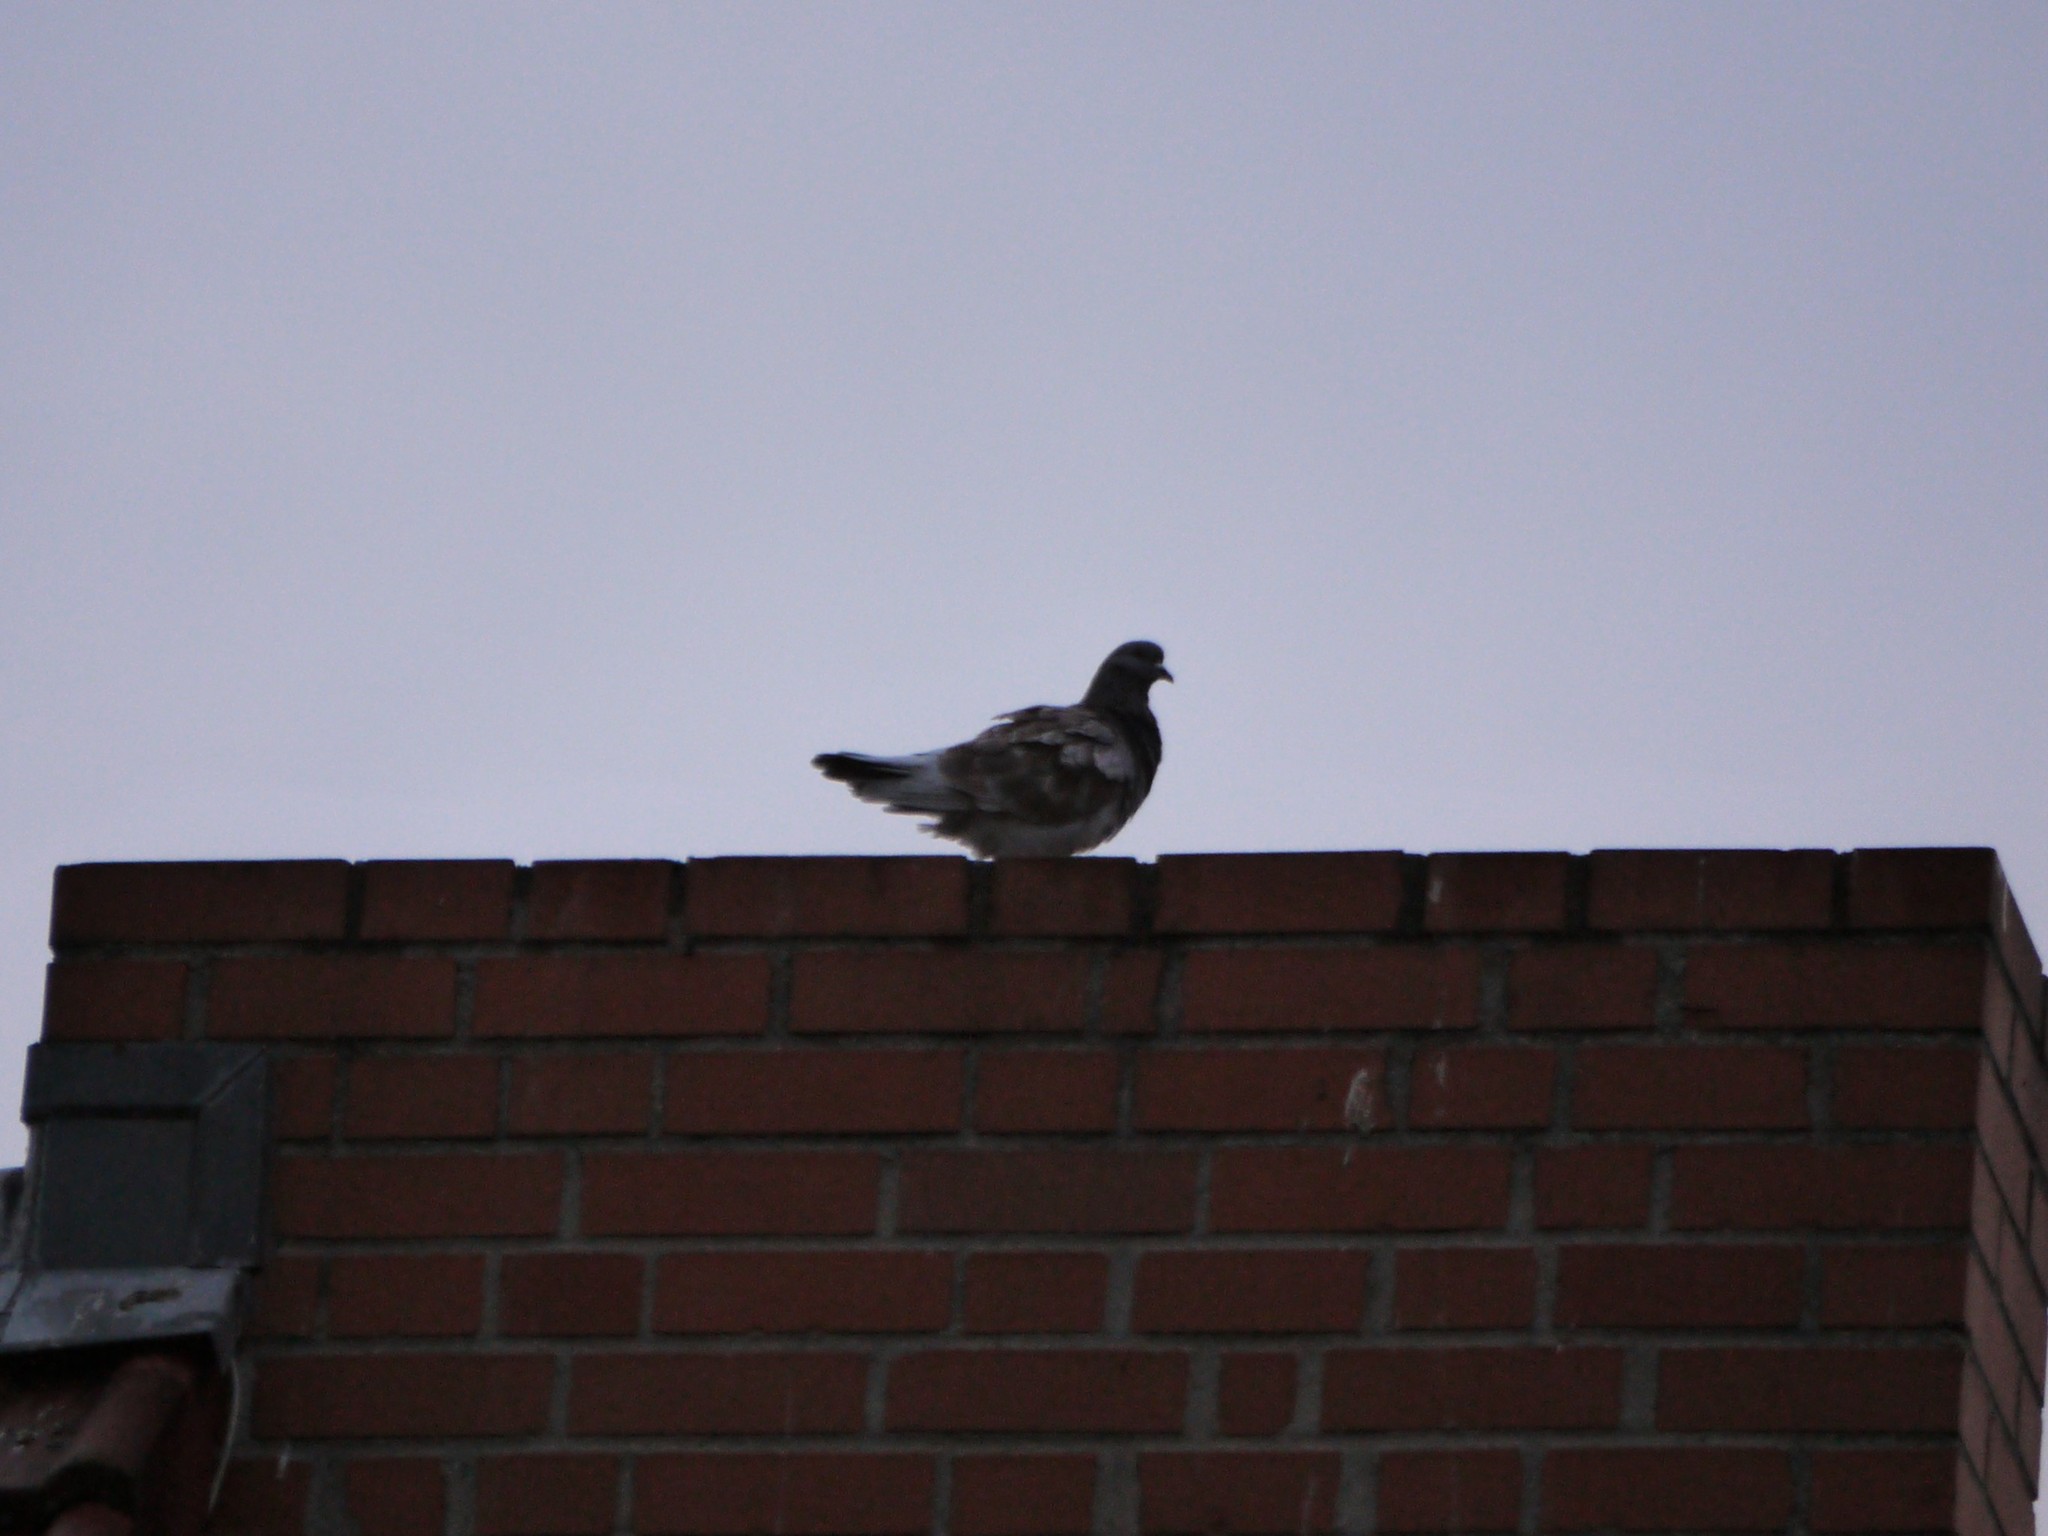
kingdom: Animalia
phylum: Chordata
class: Aves
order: Columbiformes
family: Columbidae
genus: Columba
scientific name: Columba livia
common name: Rock pigeon
